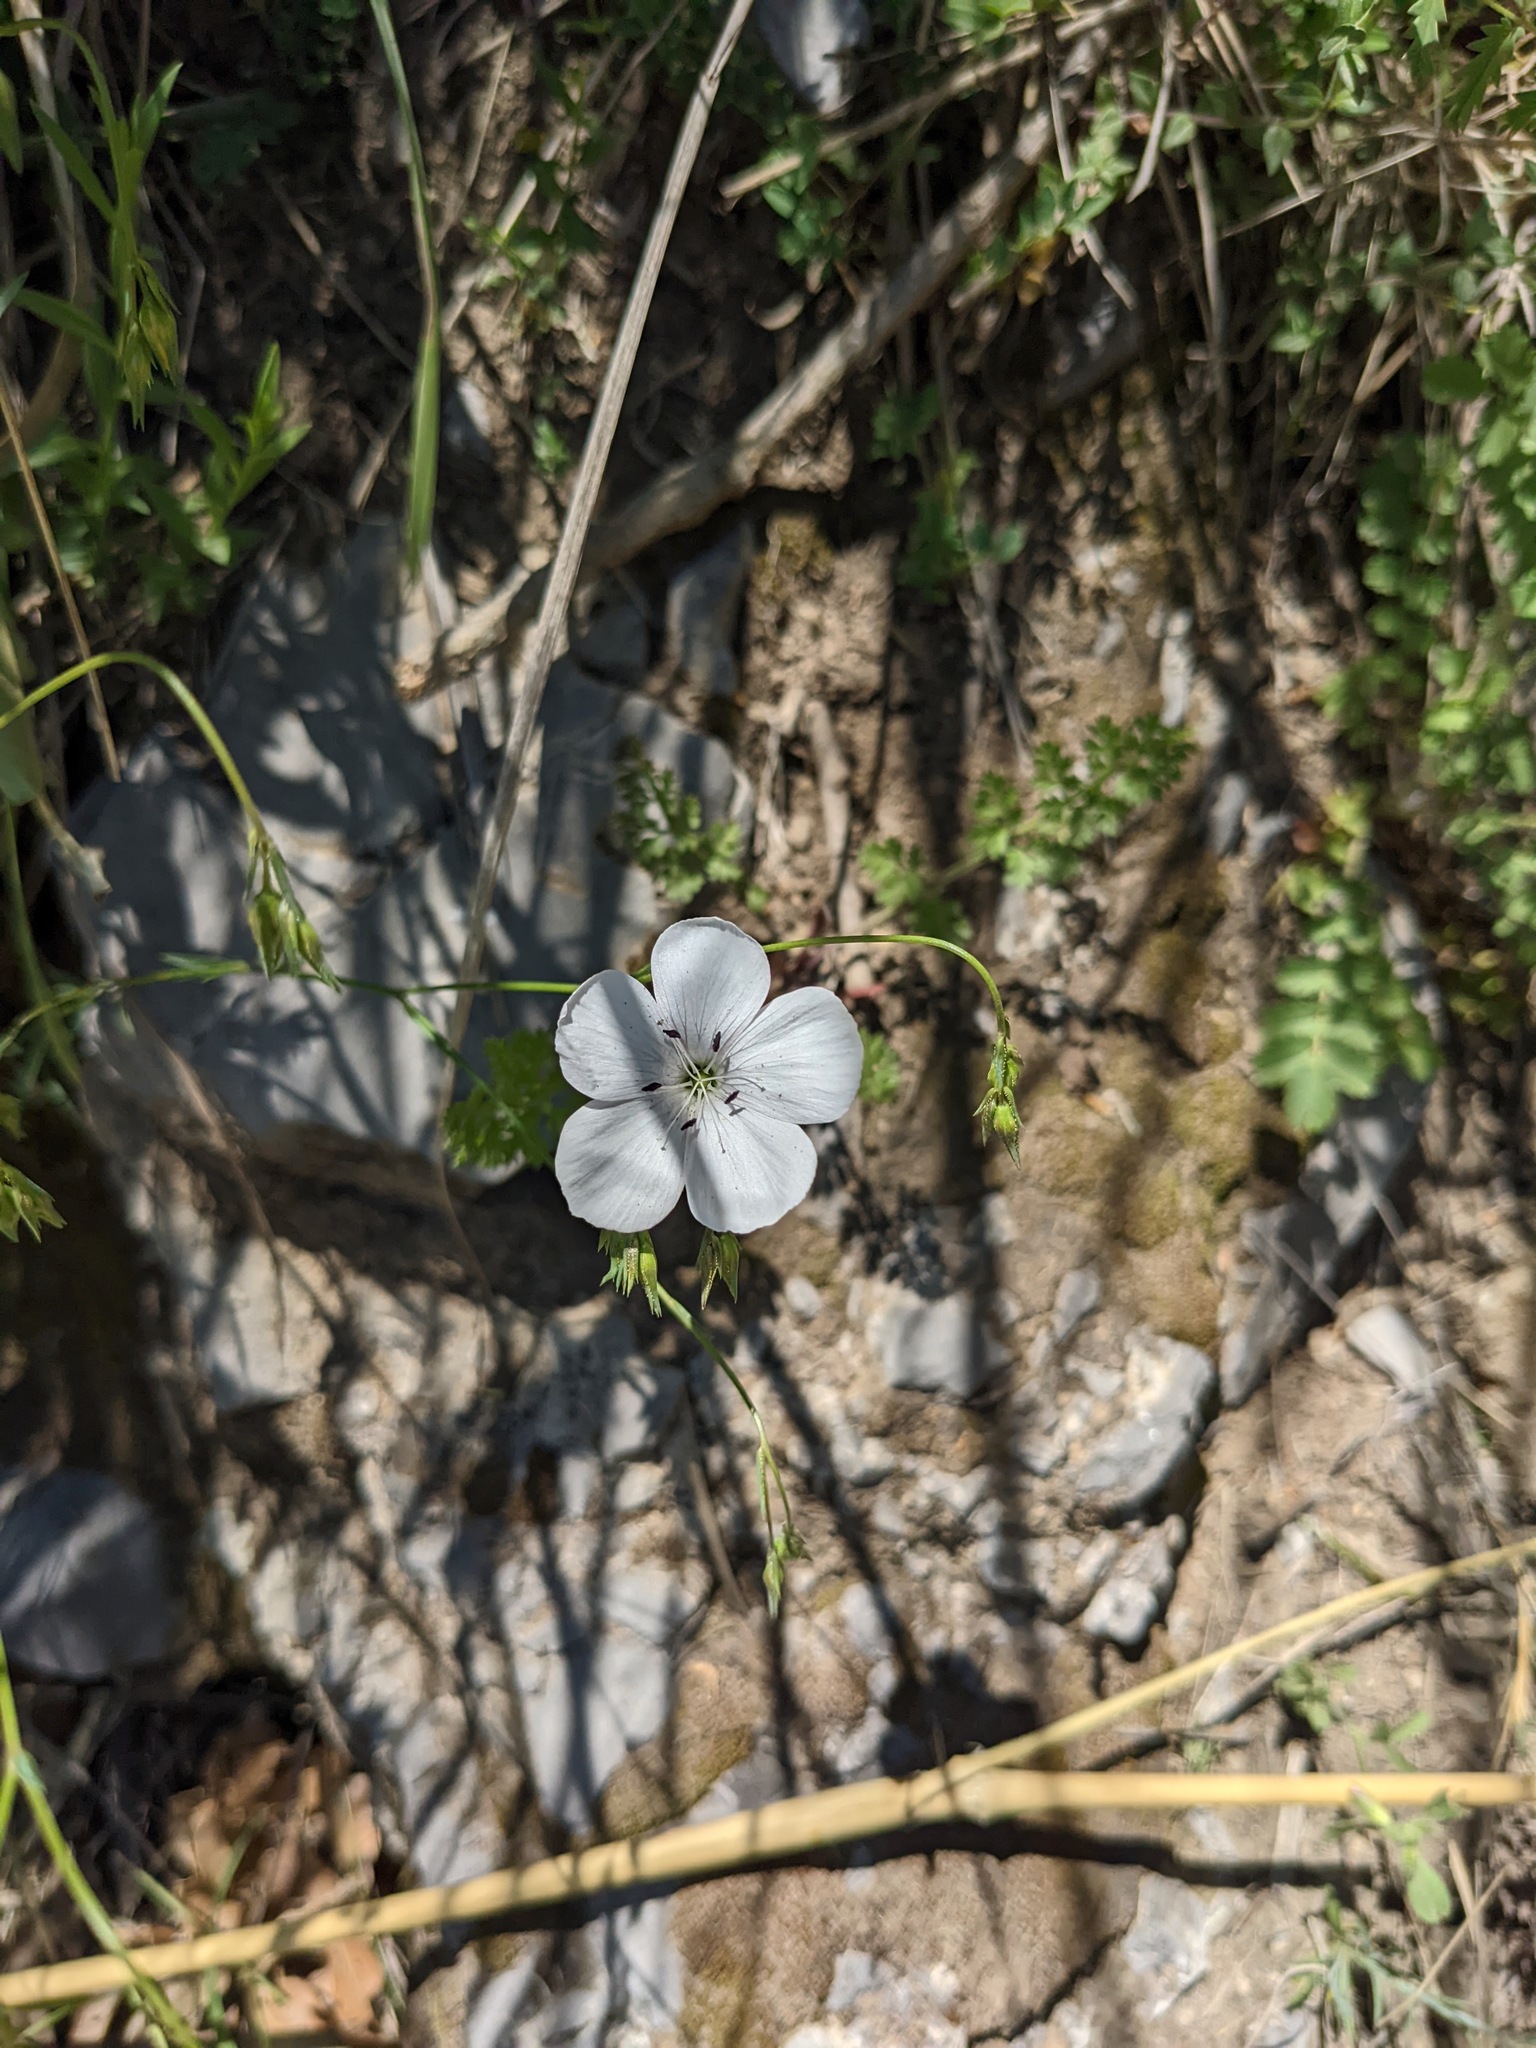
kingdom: Plantae
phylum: Tracheophyta
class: Magnoliopsida
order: Malpighiales
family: Linaceae
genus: Linum
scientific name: Linum tenuifolium
